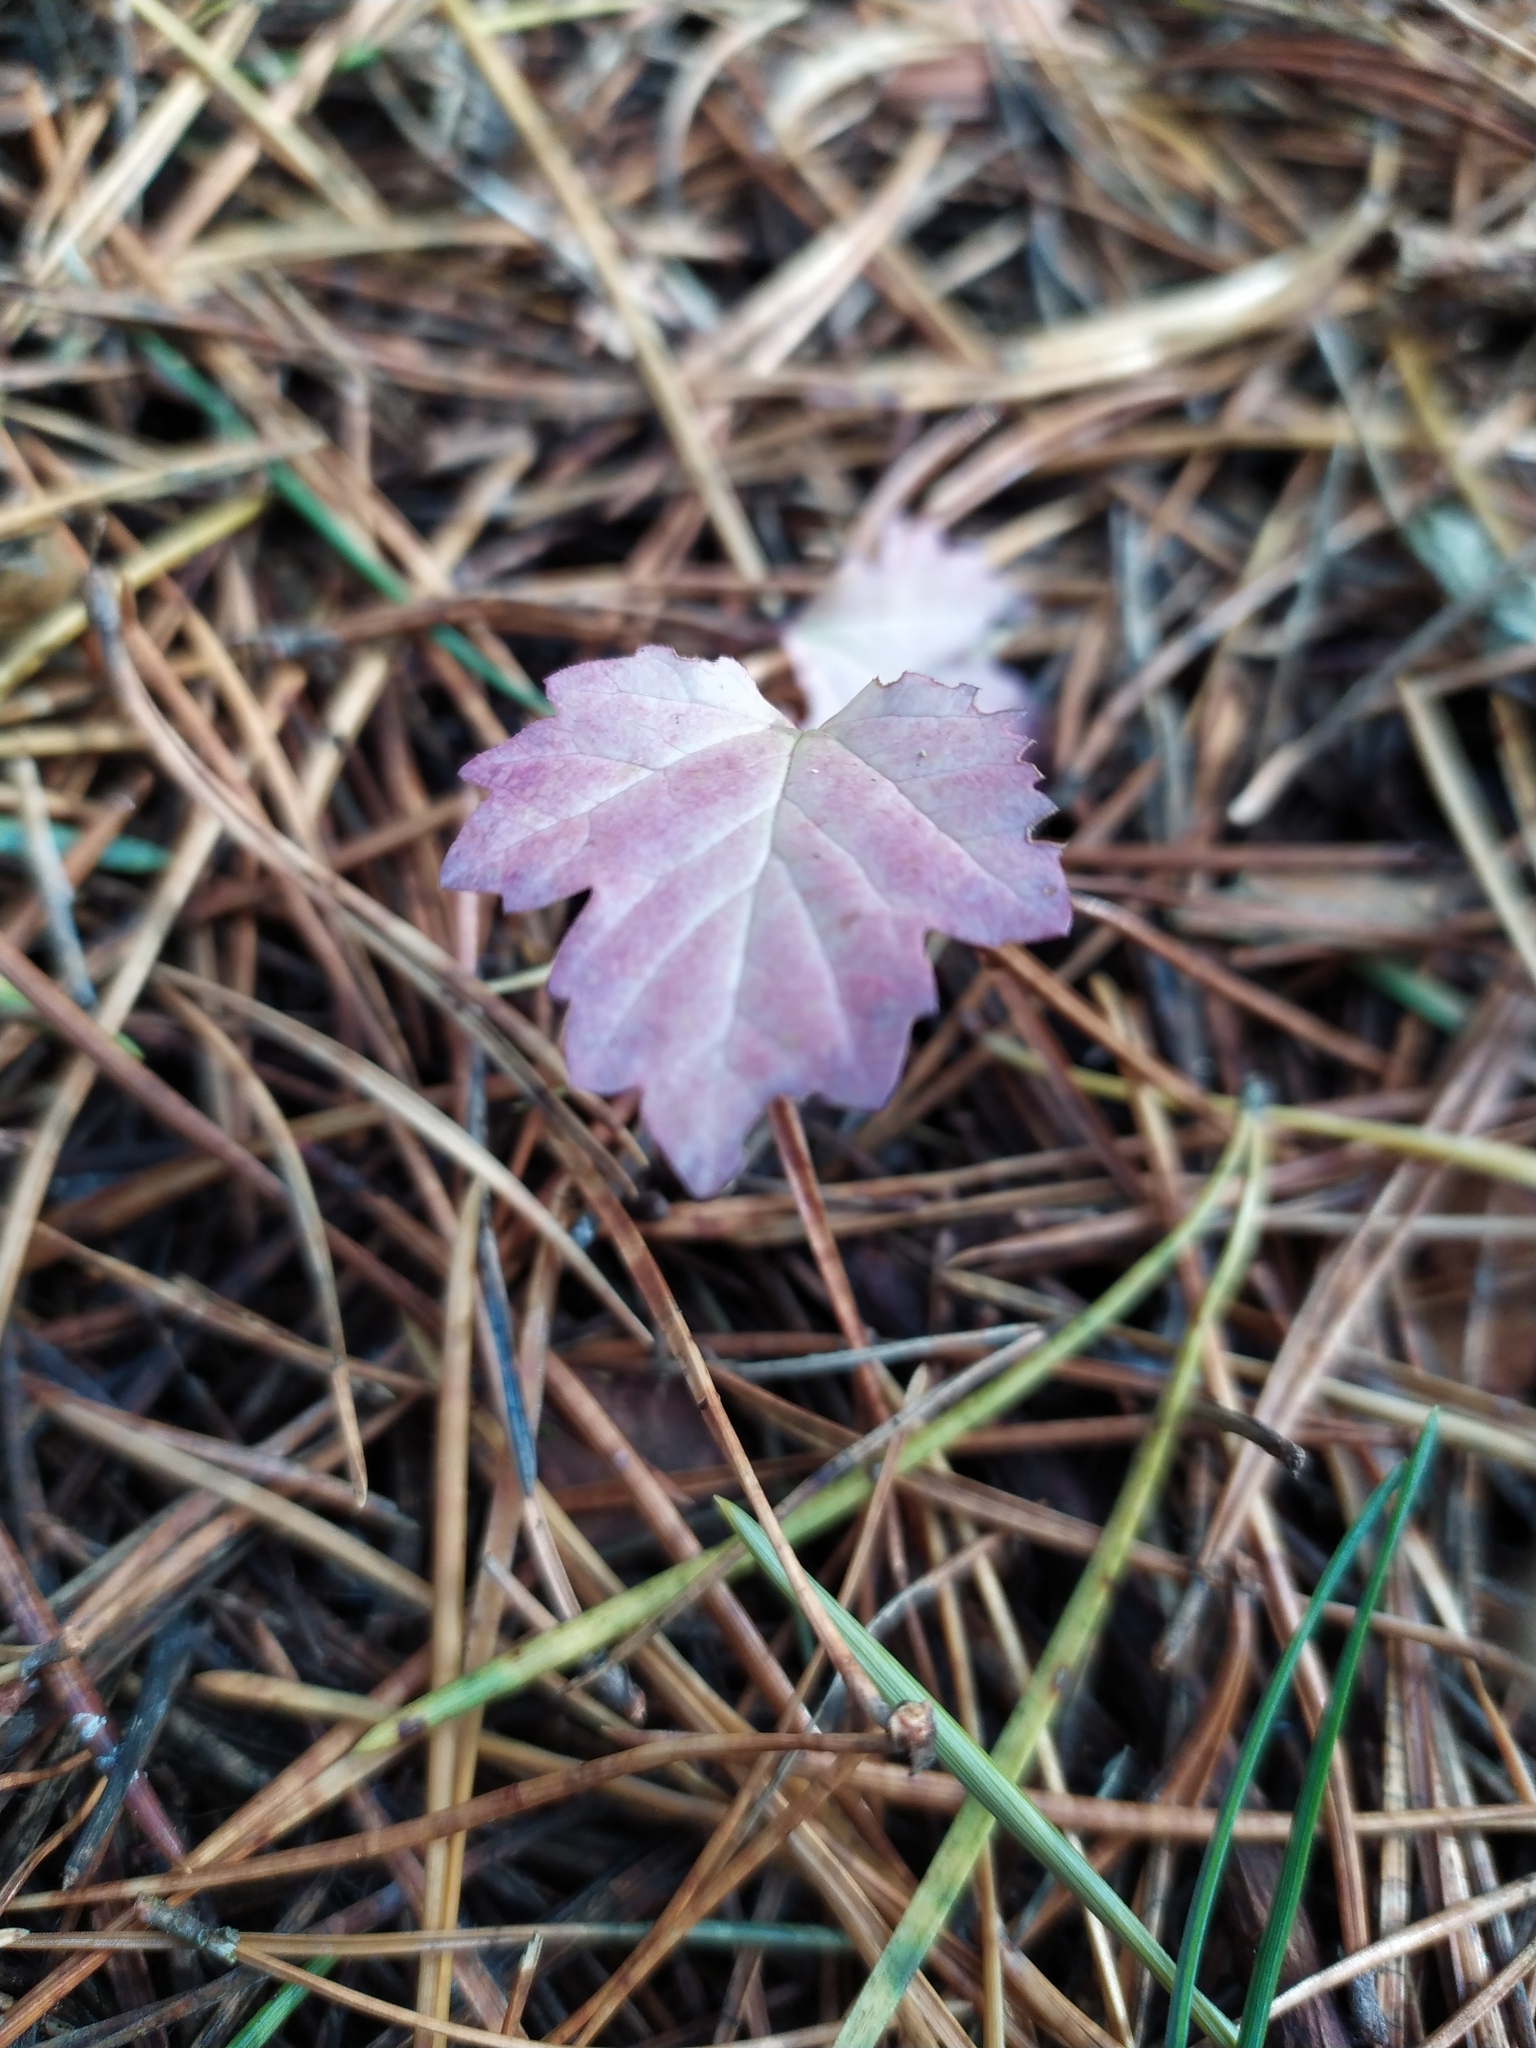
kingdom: Plantae
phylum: Tracheophyta
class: Magnoliopsida
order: Dipsacales
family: Viburnaceae
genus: Viburnum
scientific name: Viburnum opulus
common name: Guelder-rose
